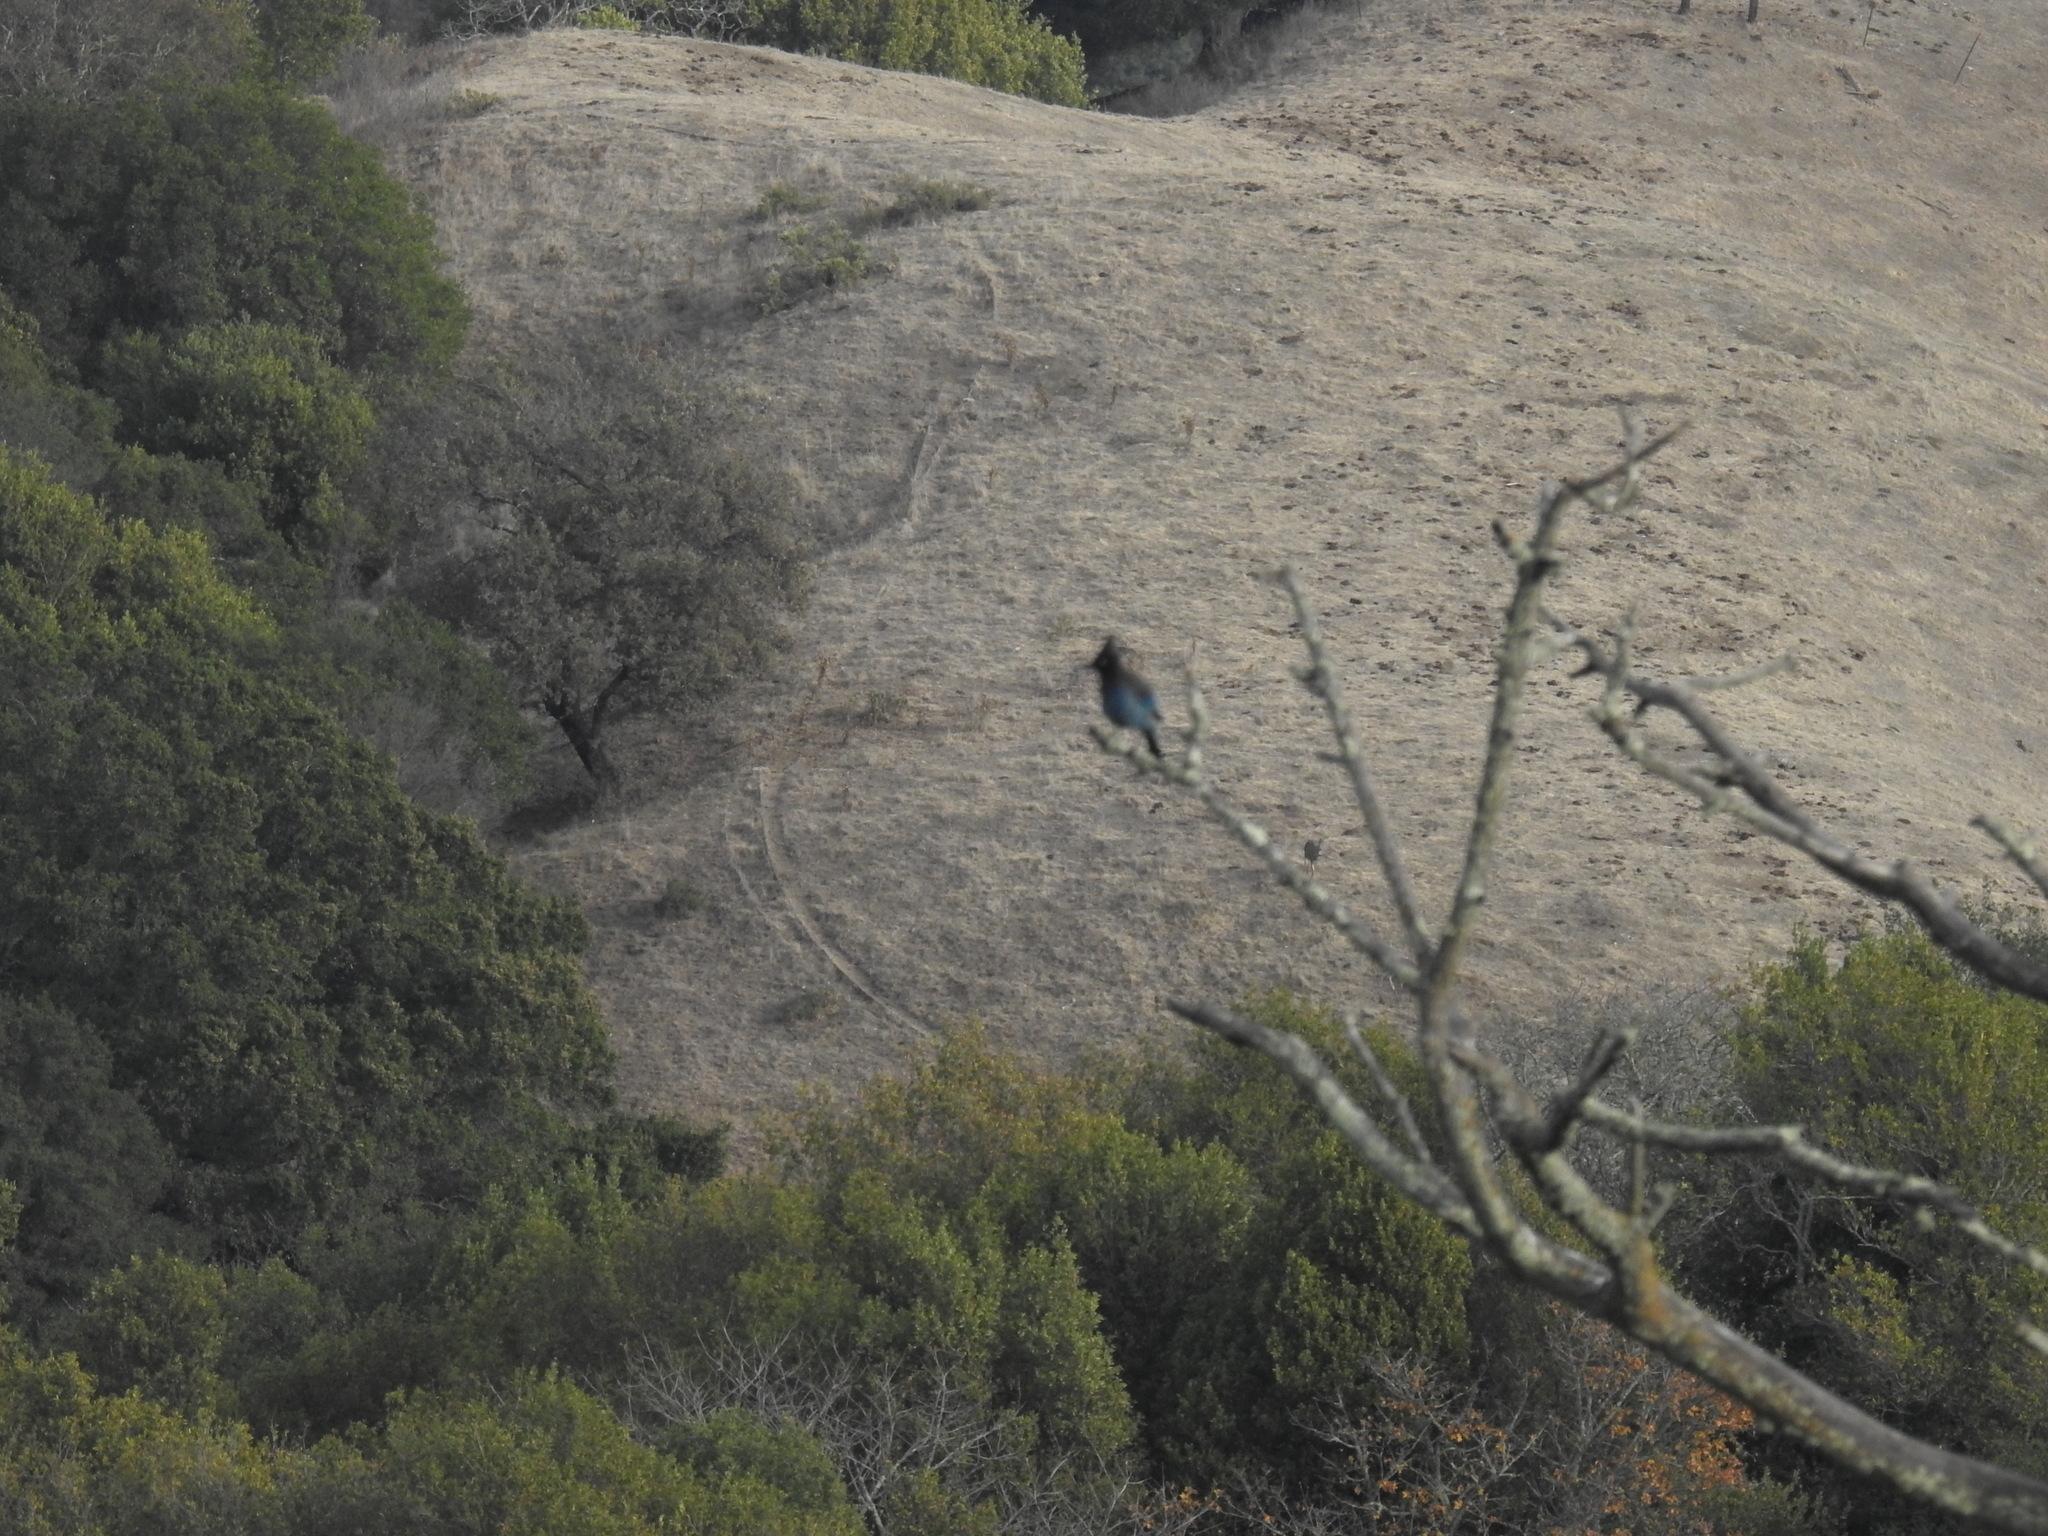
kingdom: Animalia
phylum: Chordata
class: Aves
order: Passeriformes
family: Corvidae
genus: Cyanocitta
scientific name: Cyanocitta stelleri
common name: Steller's jay
